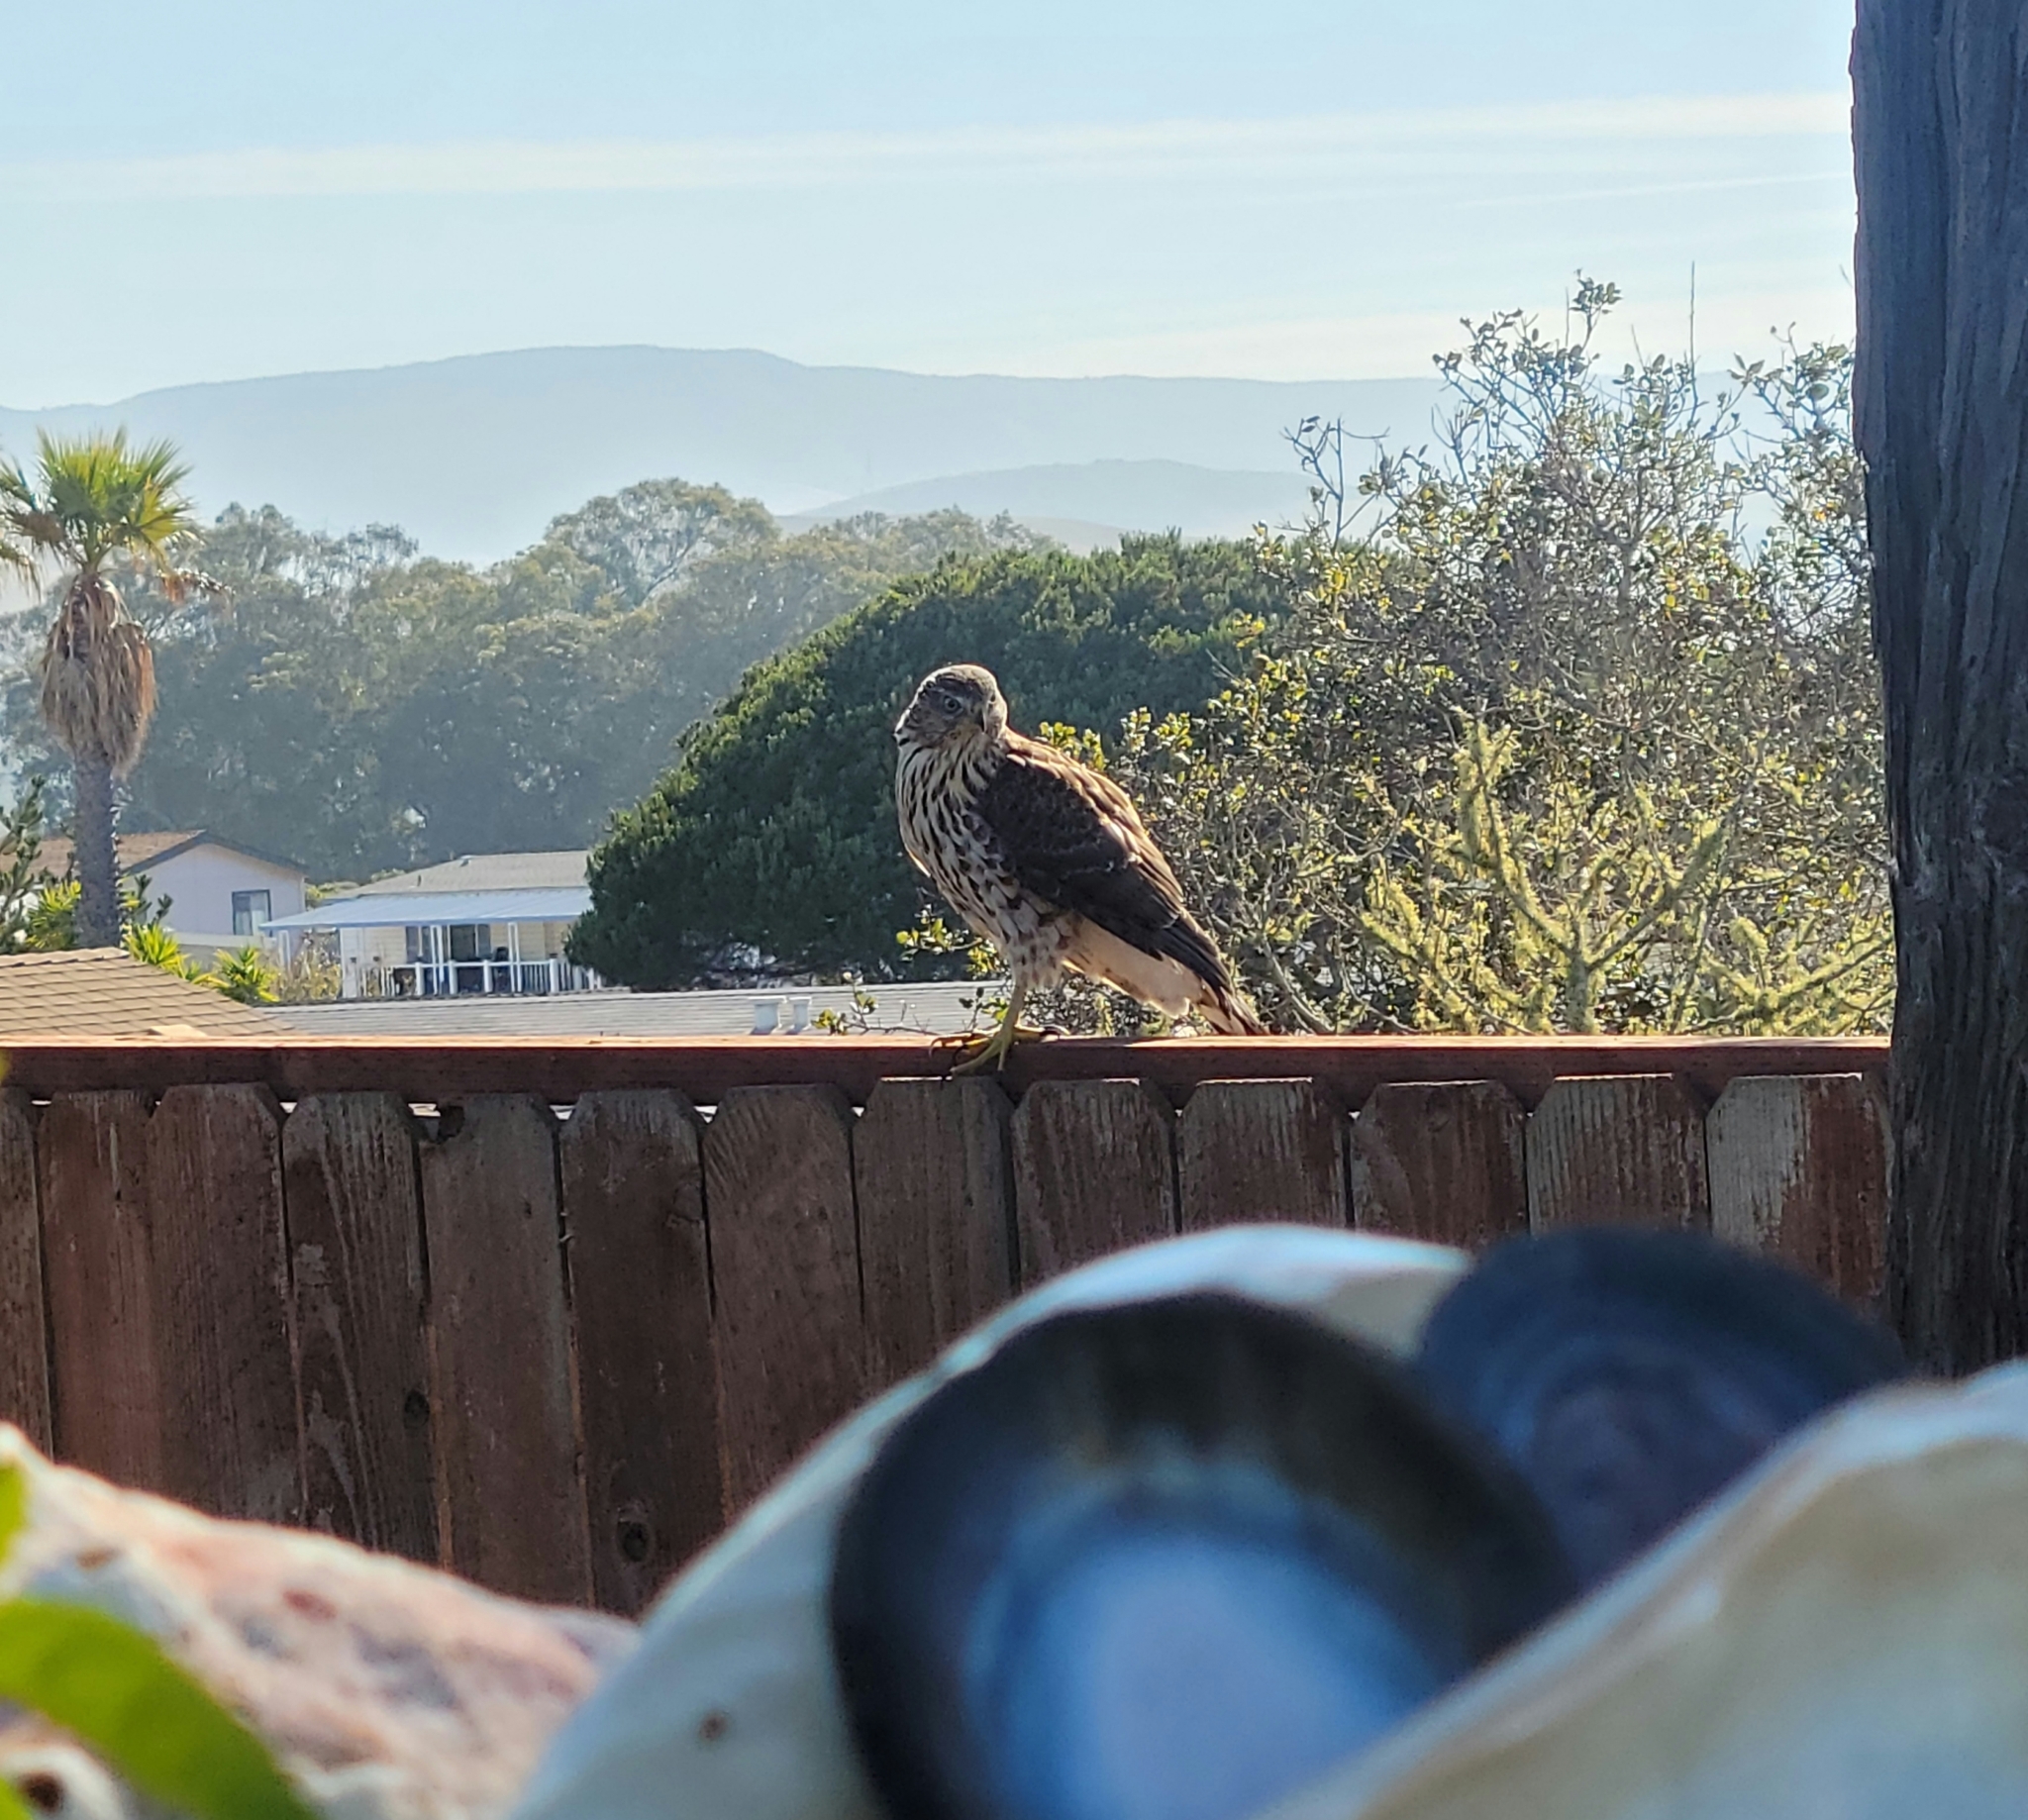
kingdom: Animalia
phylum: Chordata
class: Aves
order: Accipitriformes
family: Accipitridae
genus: Accipiter
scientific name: Accipiter cooperii
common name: Cooper's hawk
